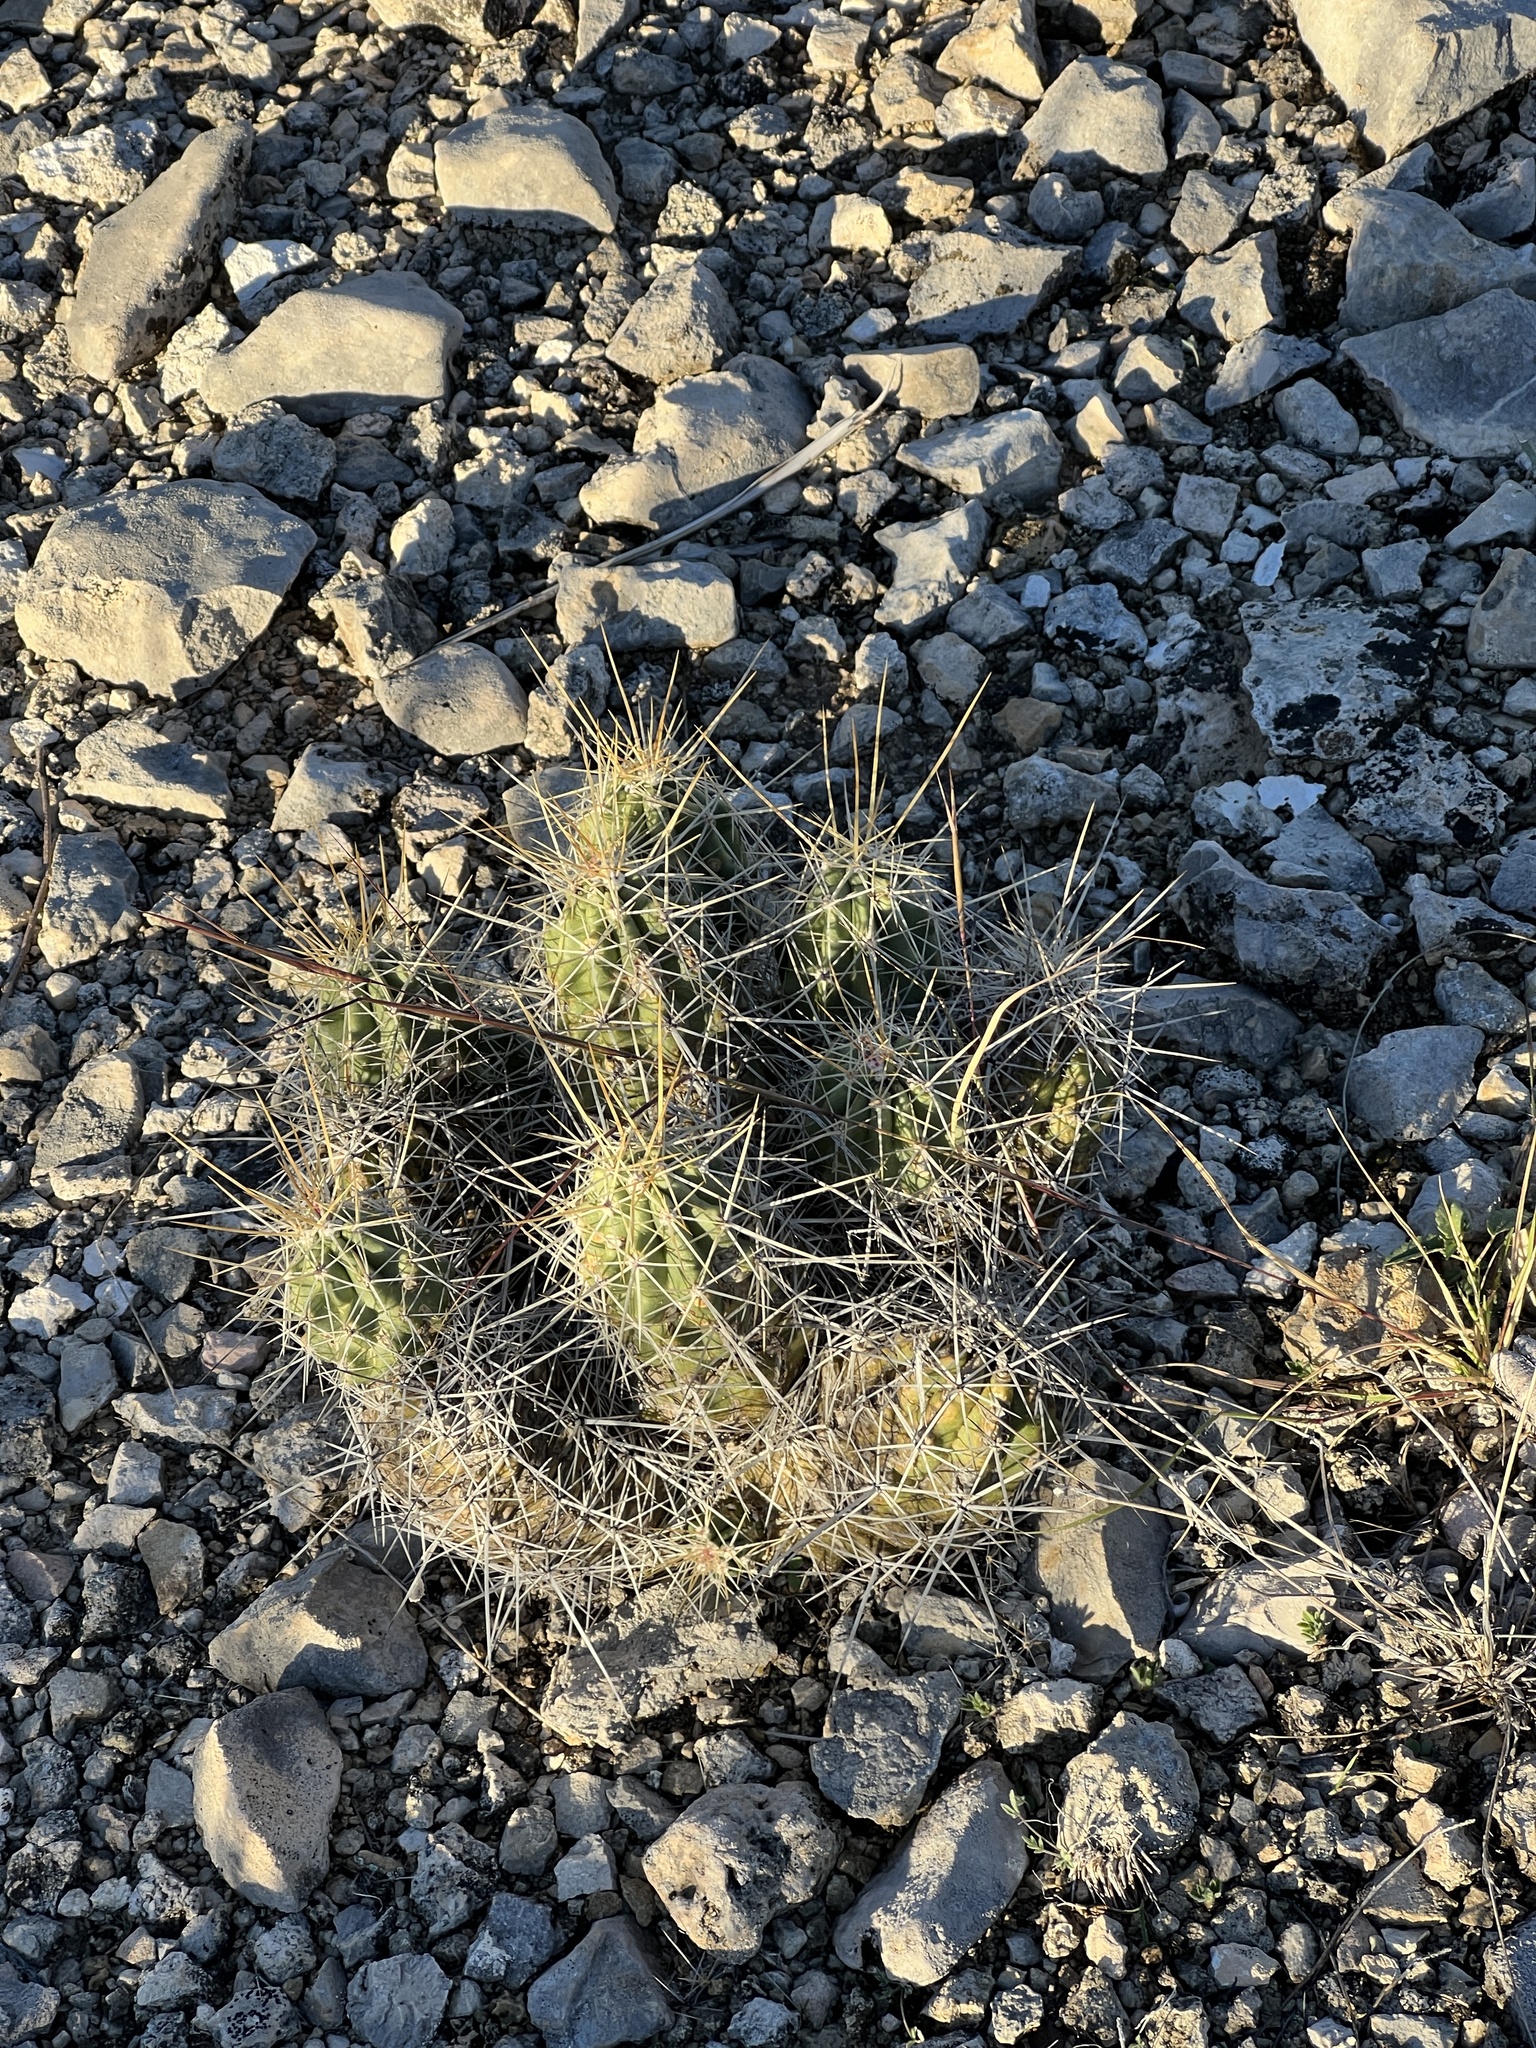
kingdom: Plantae
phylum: Tracheophyta
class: Magnoliopsida
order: Caryophyllales
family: Cactaceae
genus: Echinocereus
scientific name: Echinocereus enneacanthus
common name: Pitaya
